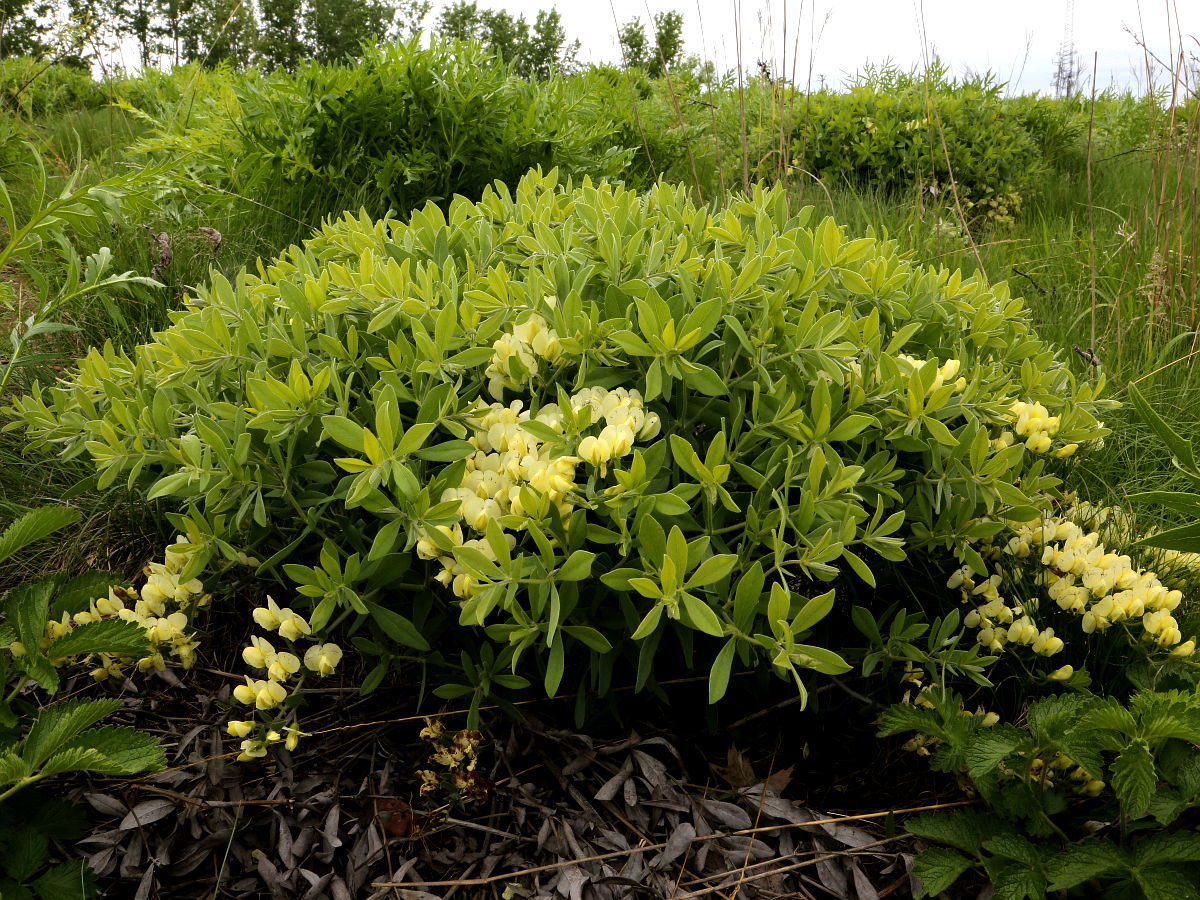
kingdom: Plantae
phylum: Tracheophyta
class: Magnoliopsida
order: Fabales
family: Fabaceae
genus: Baptisia
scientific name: Baptisia bracteata
